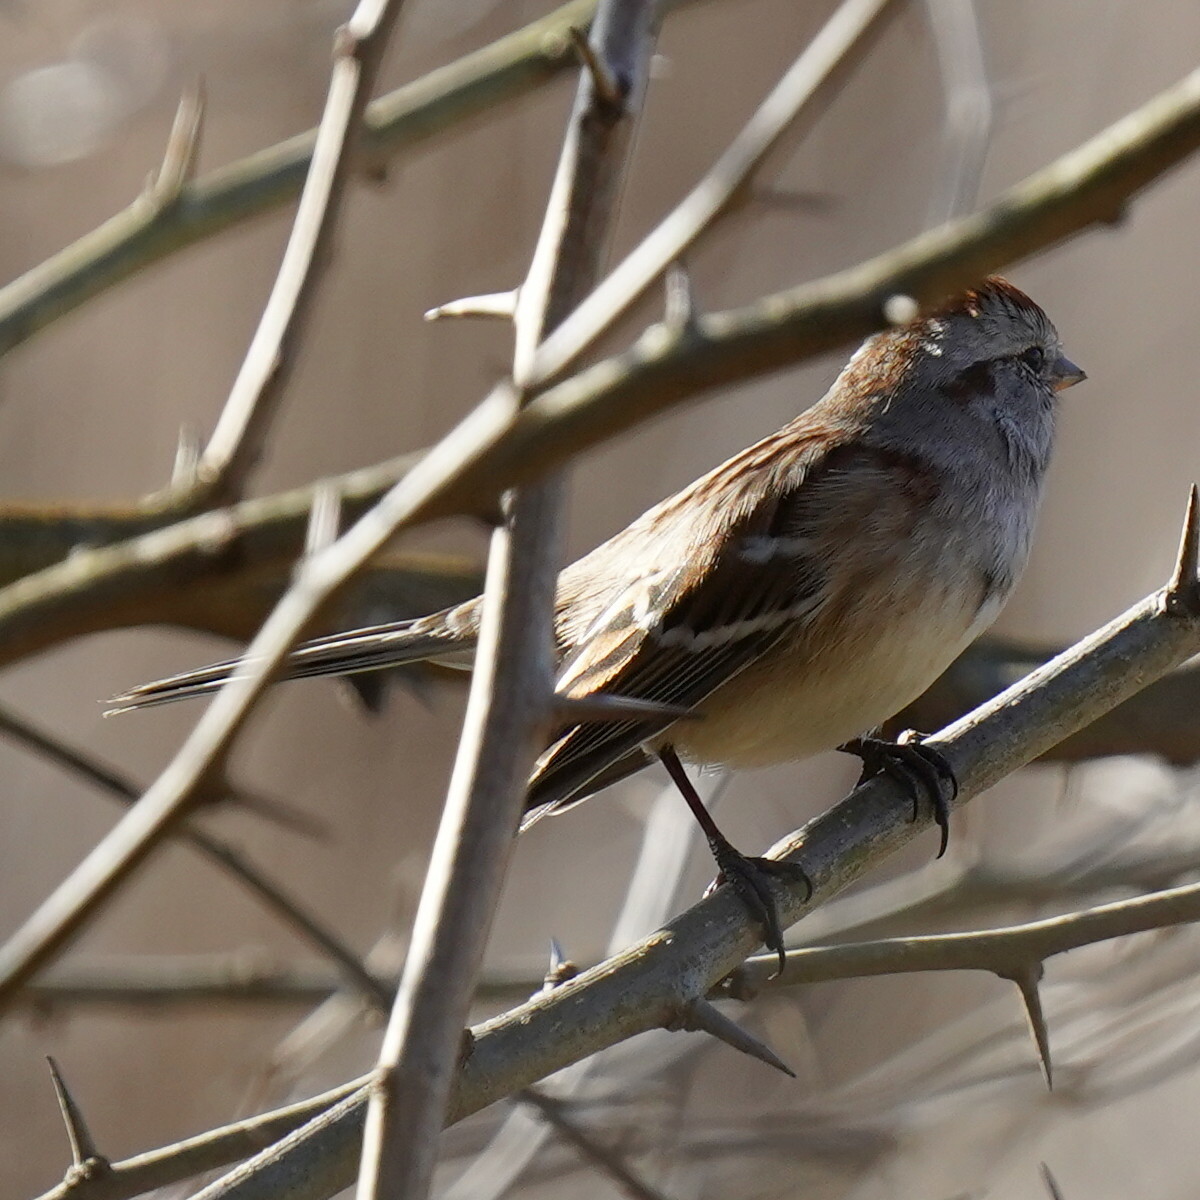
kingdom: Animalia
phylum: Chordata
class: Aves
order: Passeriformes
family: Passerellidae
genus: Spizelloides
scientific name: Spizelloides arborea
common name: American tree sparrow
